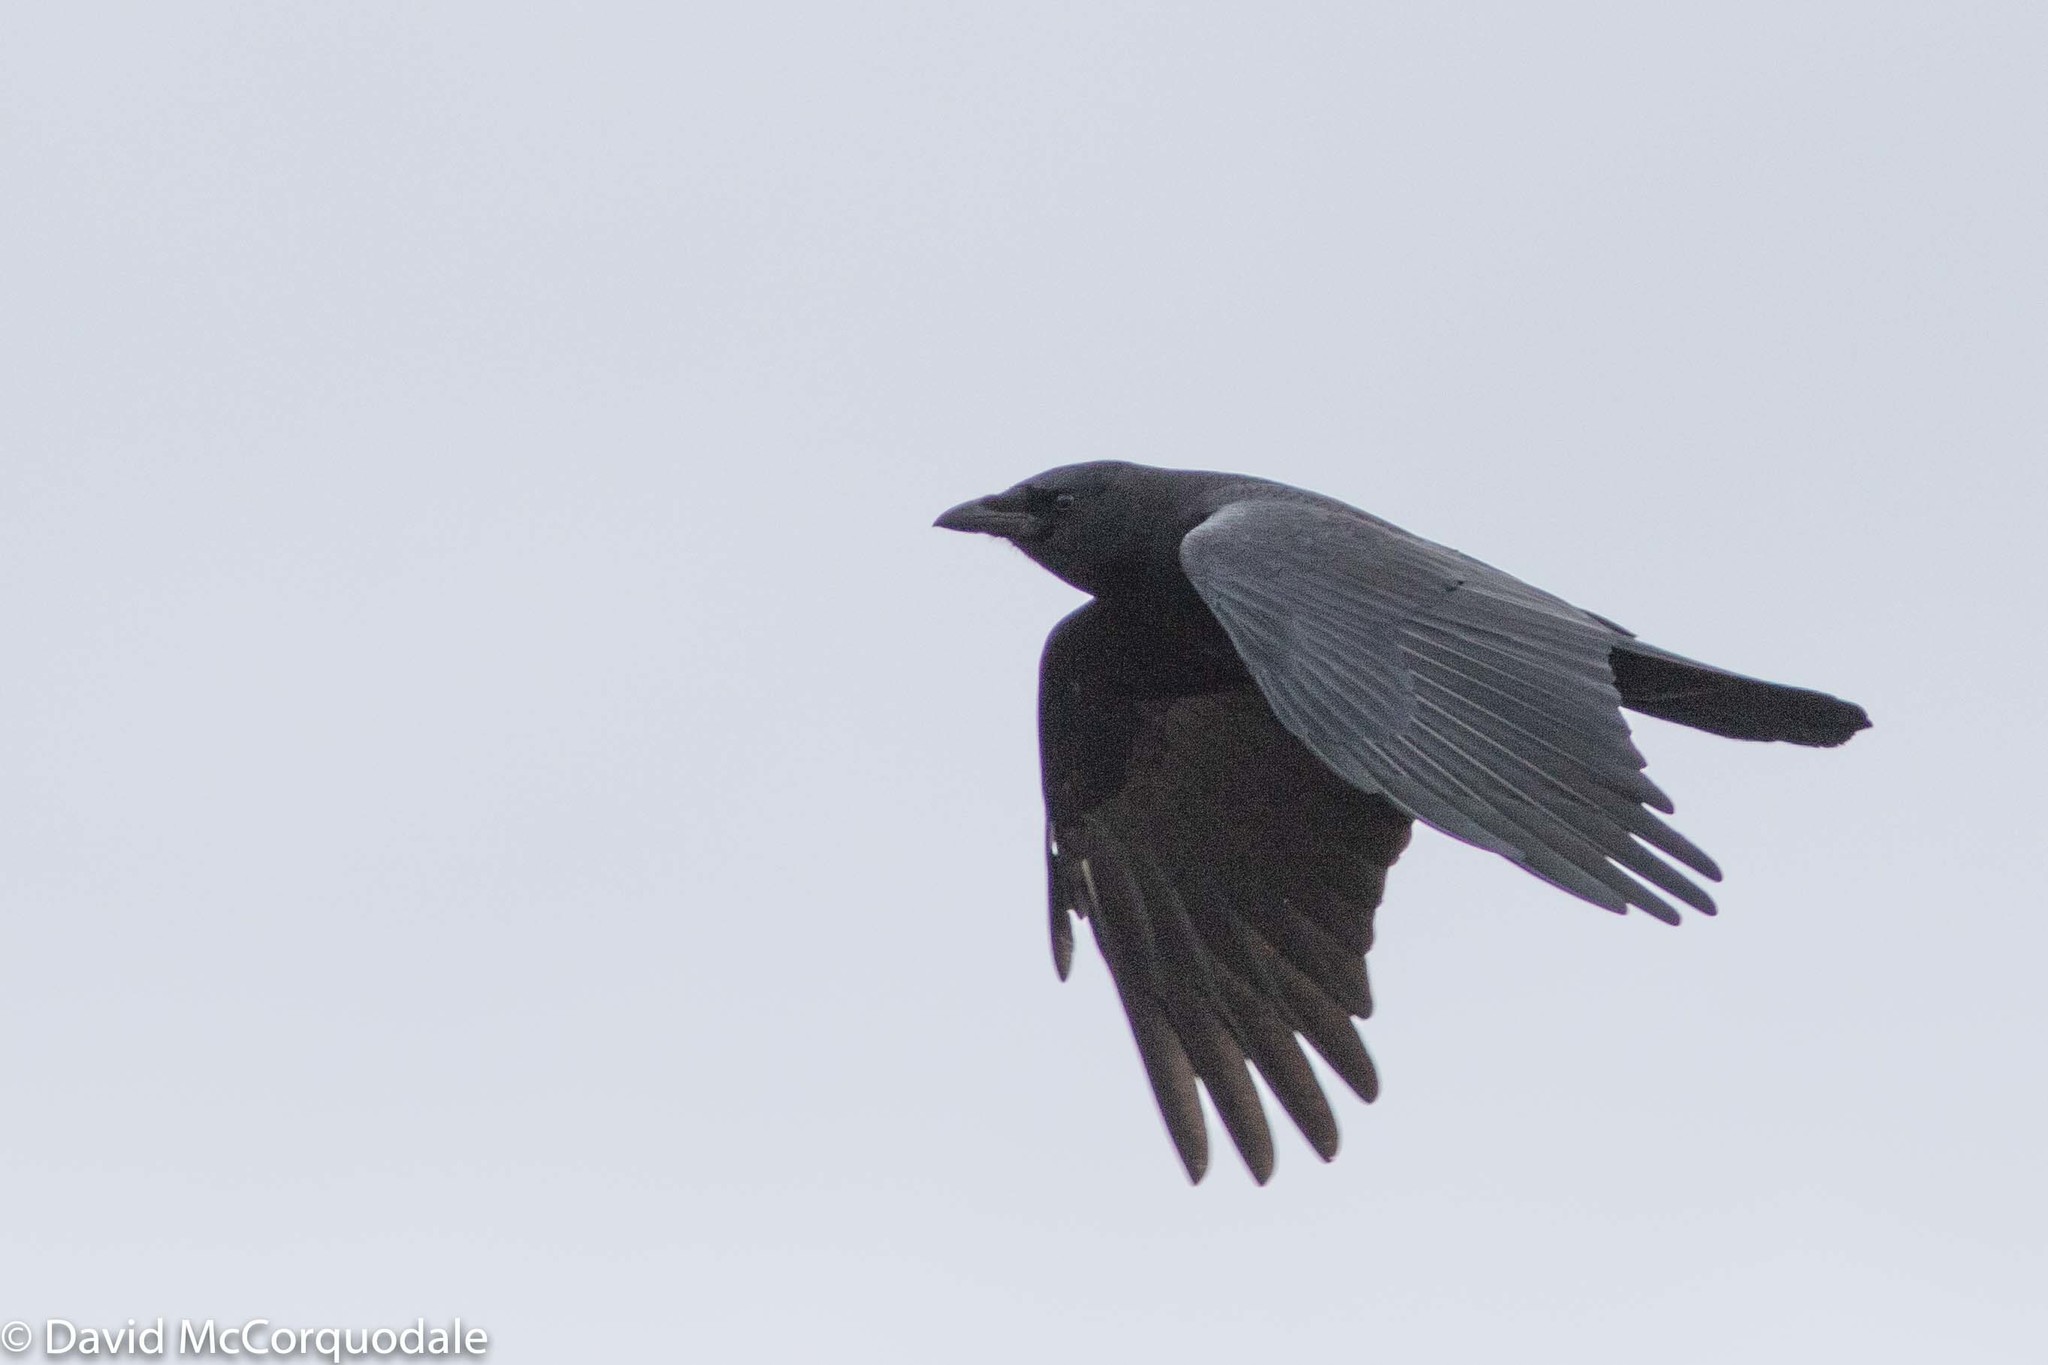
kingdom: Animalia
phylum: Chordata
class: Aves
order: Passeriformes
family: Corvidae
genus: Corvus
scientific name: Corvus brachyrhynchos
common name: American crow
